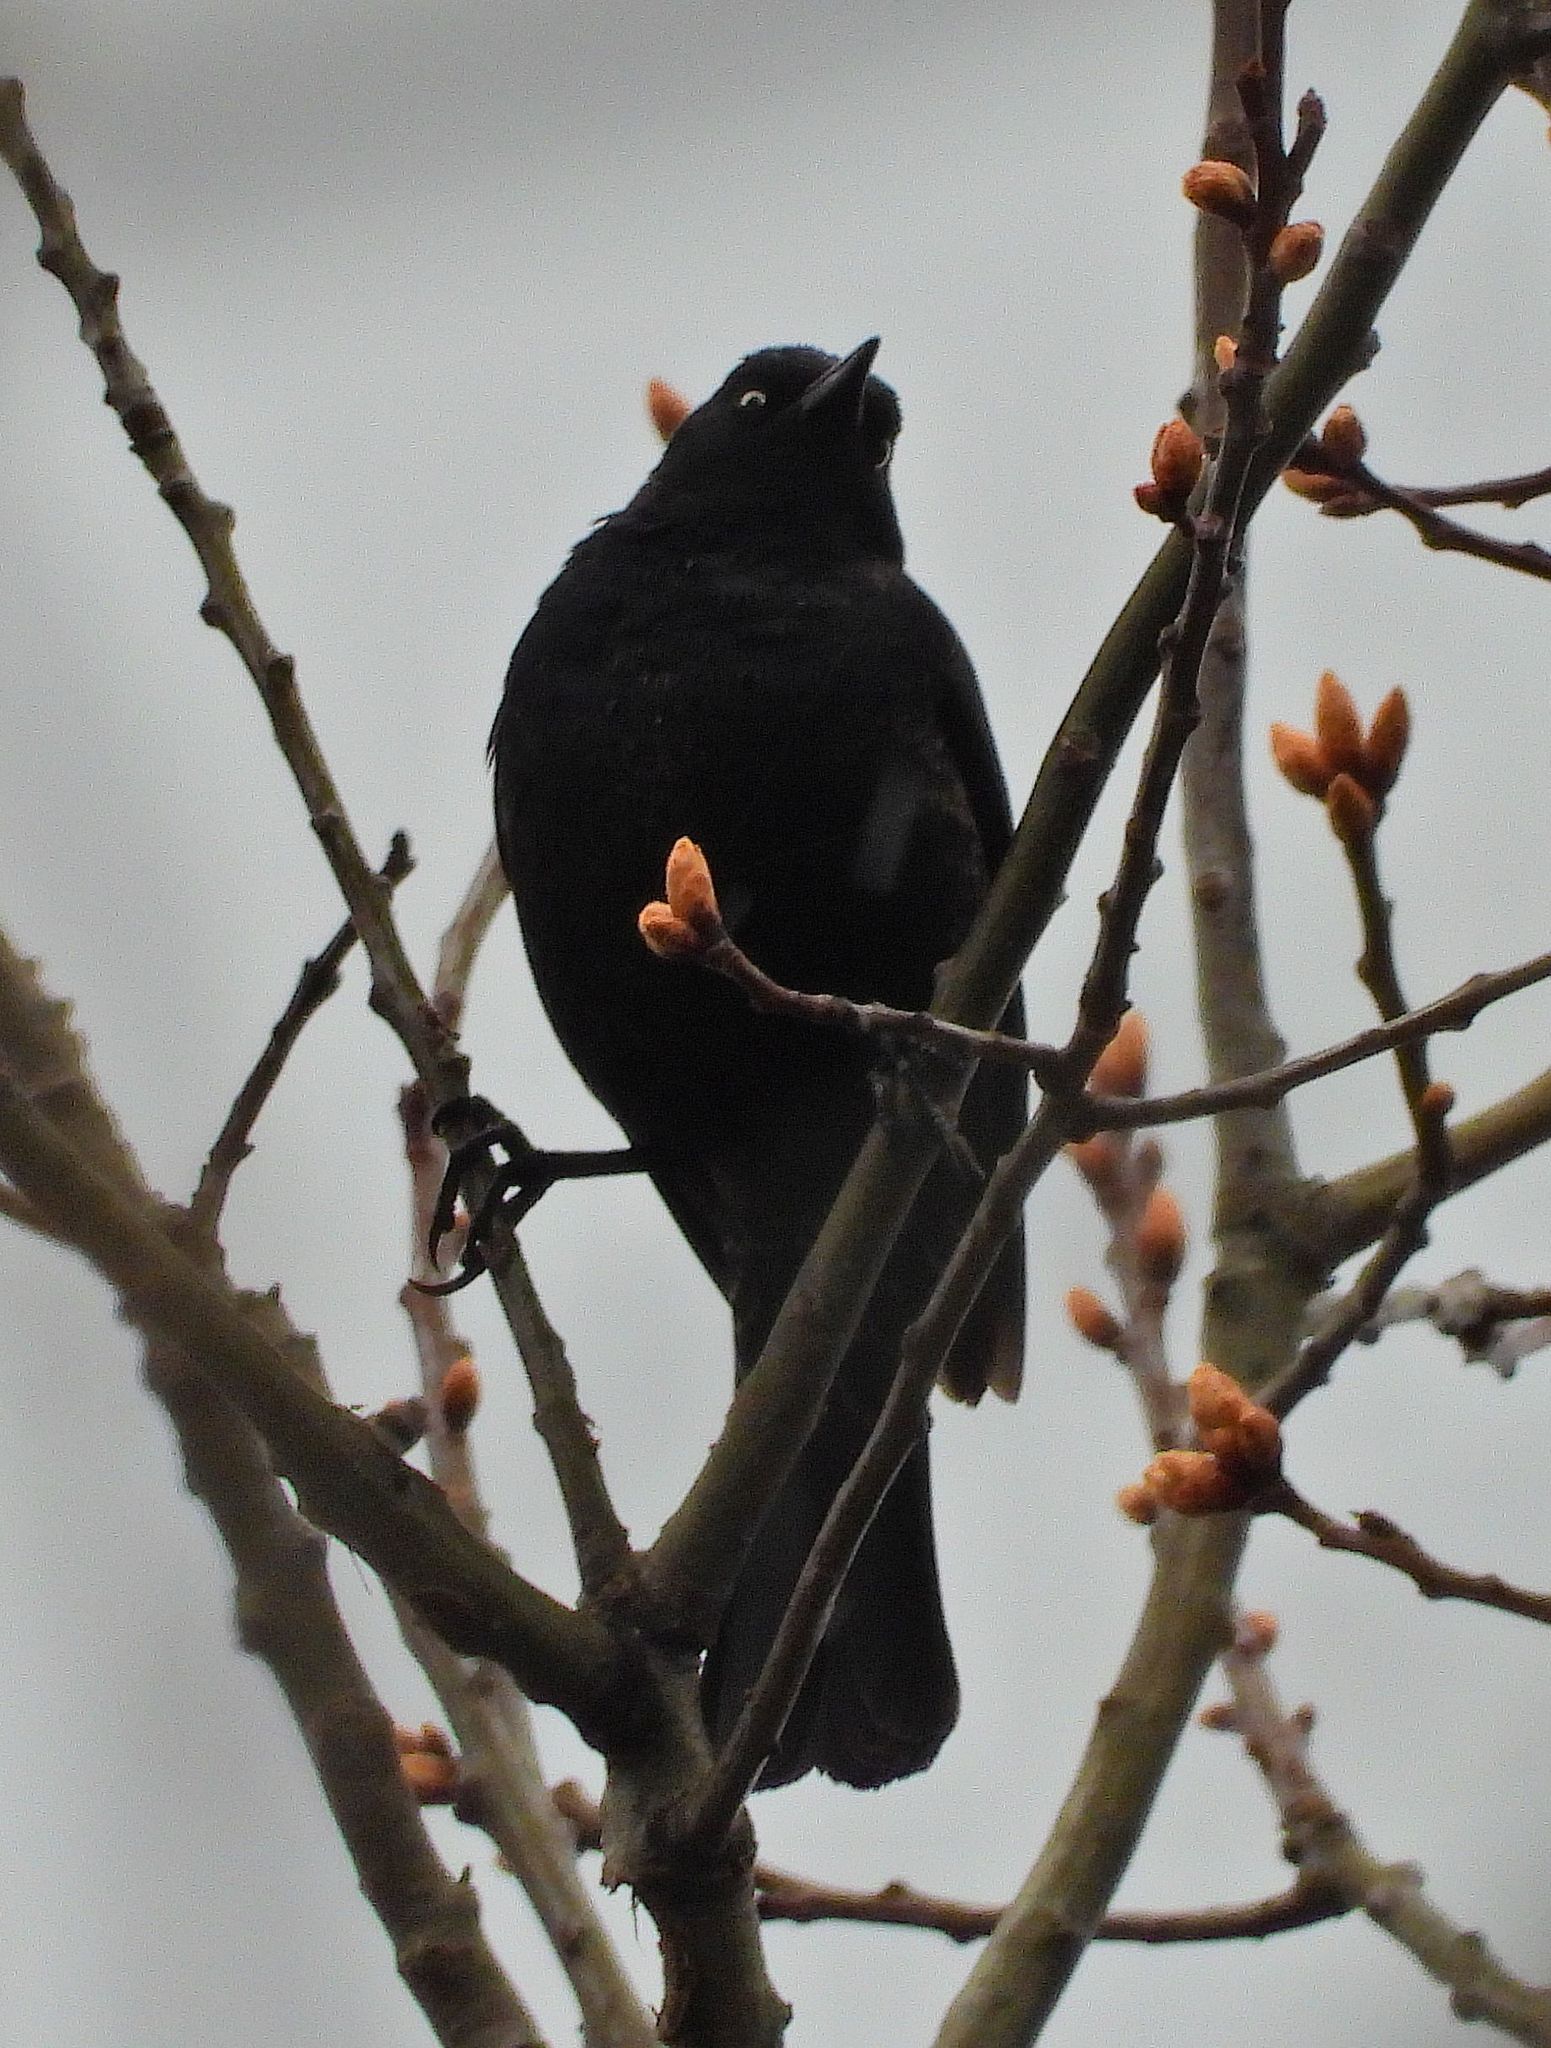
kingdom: Animalia
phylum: Chordata
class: Aves
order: Passeriformes
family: Icteridae
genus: Euphagus
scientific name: Euphagus carolinus
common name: Rusty blackbird
